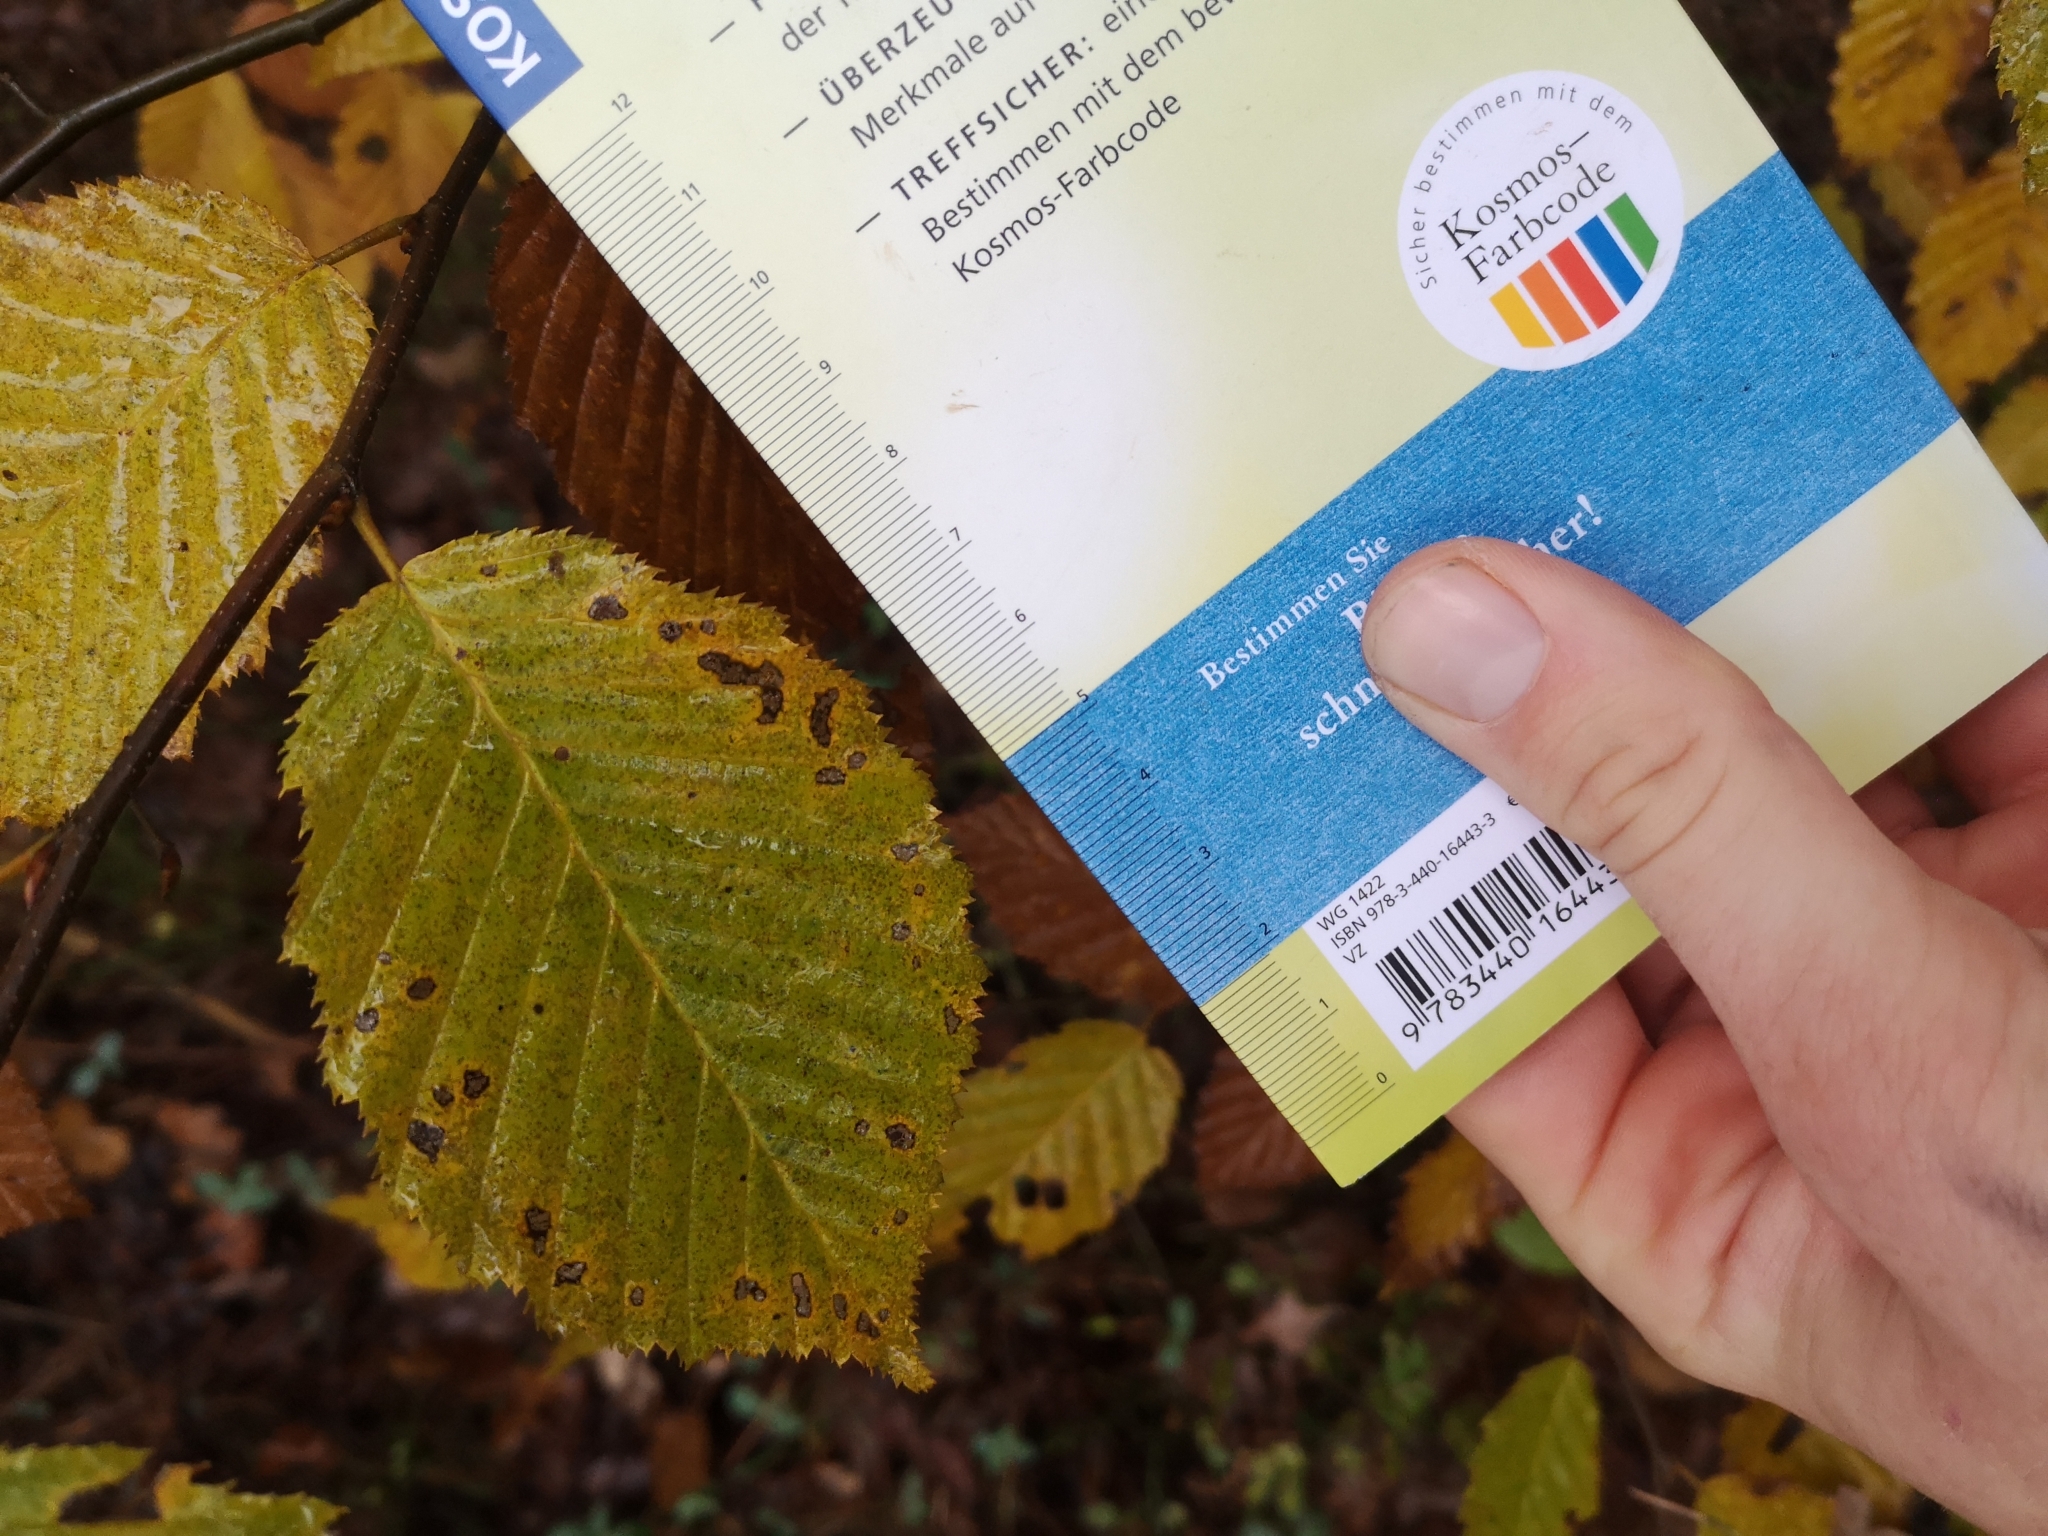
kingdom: Plantae
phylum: Tracheophyta
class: Magnoliopsida
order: Fagales
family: Betulaceae
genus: Carpinus
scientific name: Carpinus betulus
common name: Hornbeam
